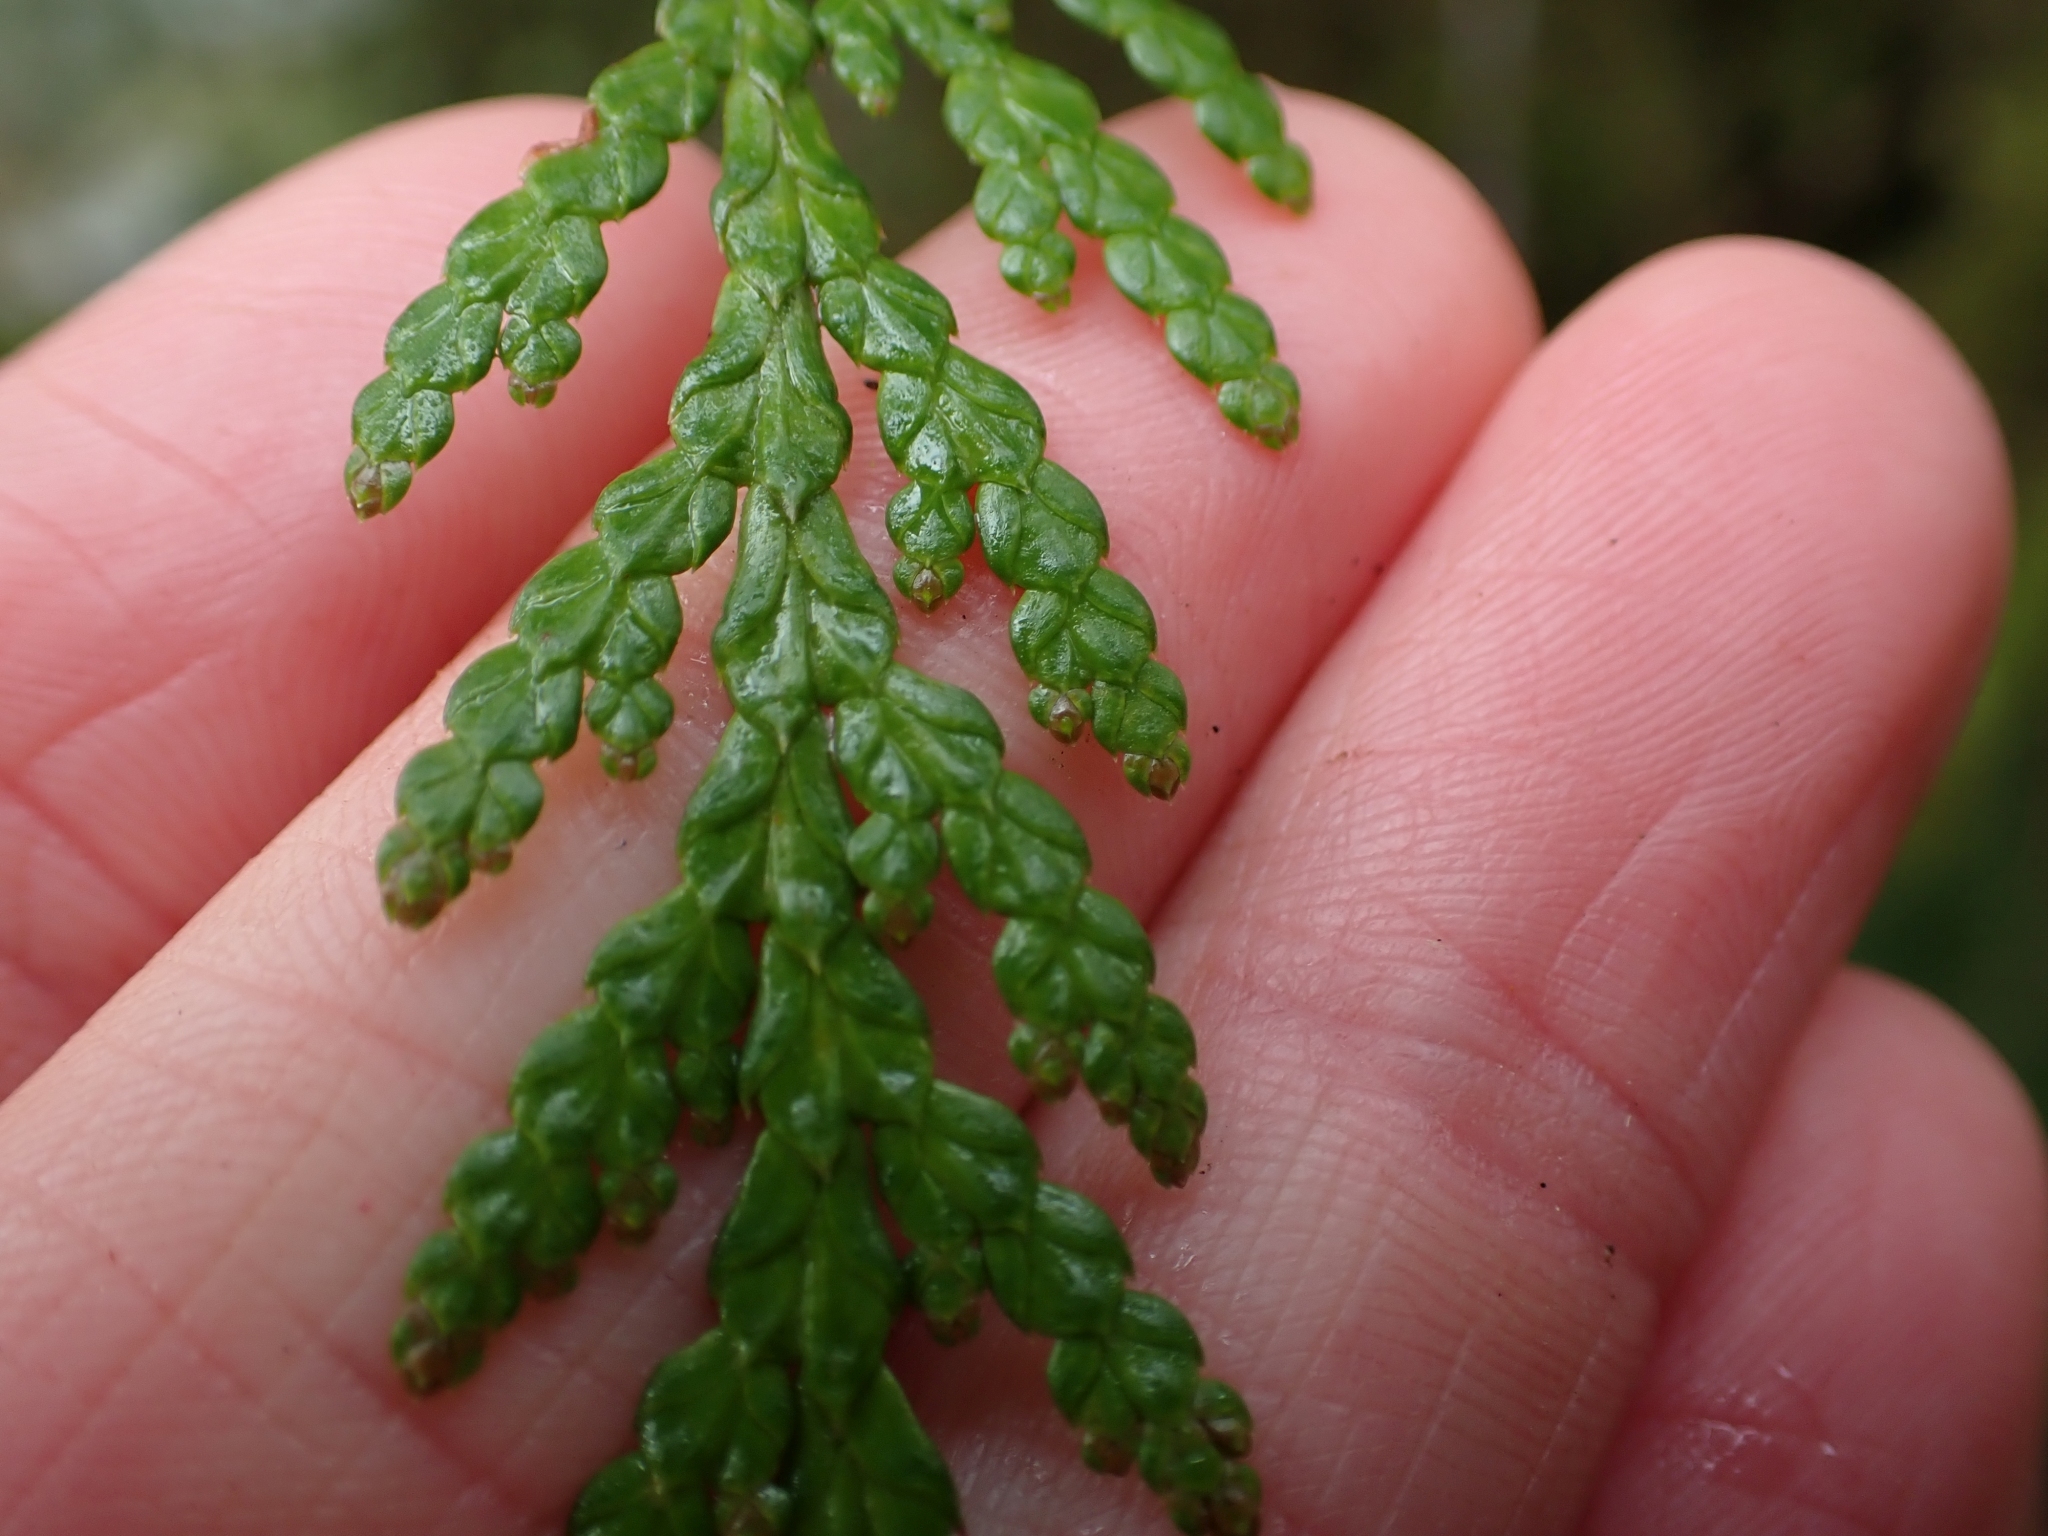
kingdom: Plantae
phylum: Tracheophyta
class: Pinopsida
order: Pinales
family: Cupressaceae
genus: Thuja
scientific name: Thuja plicata
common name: Western red-cedar
